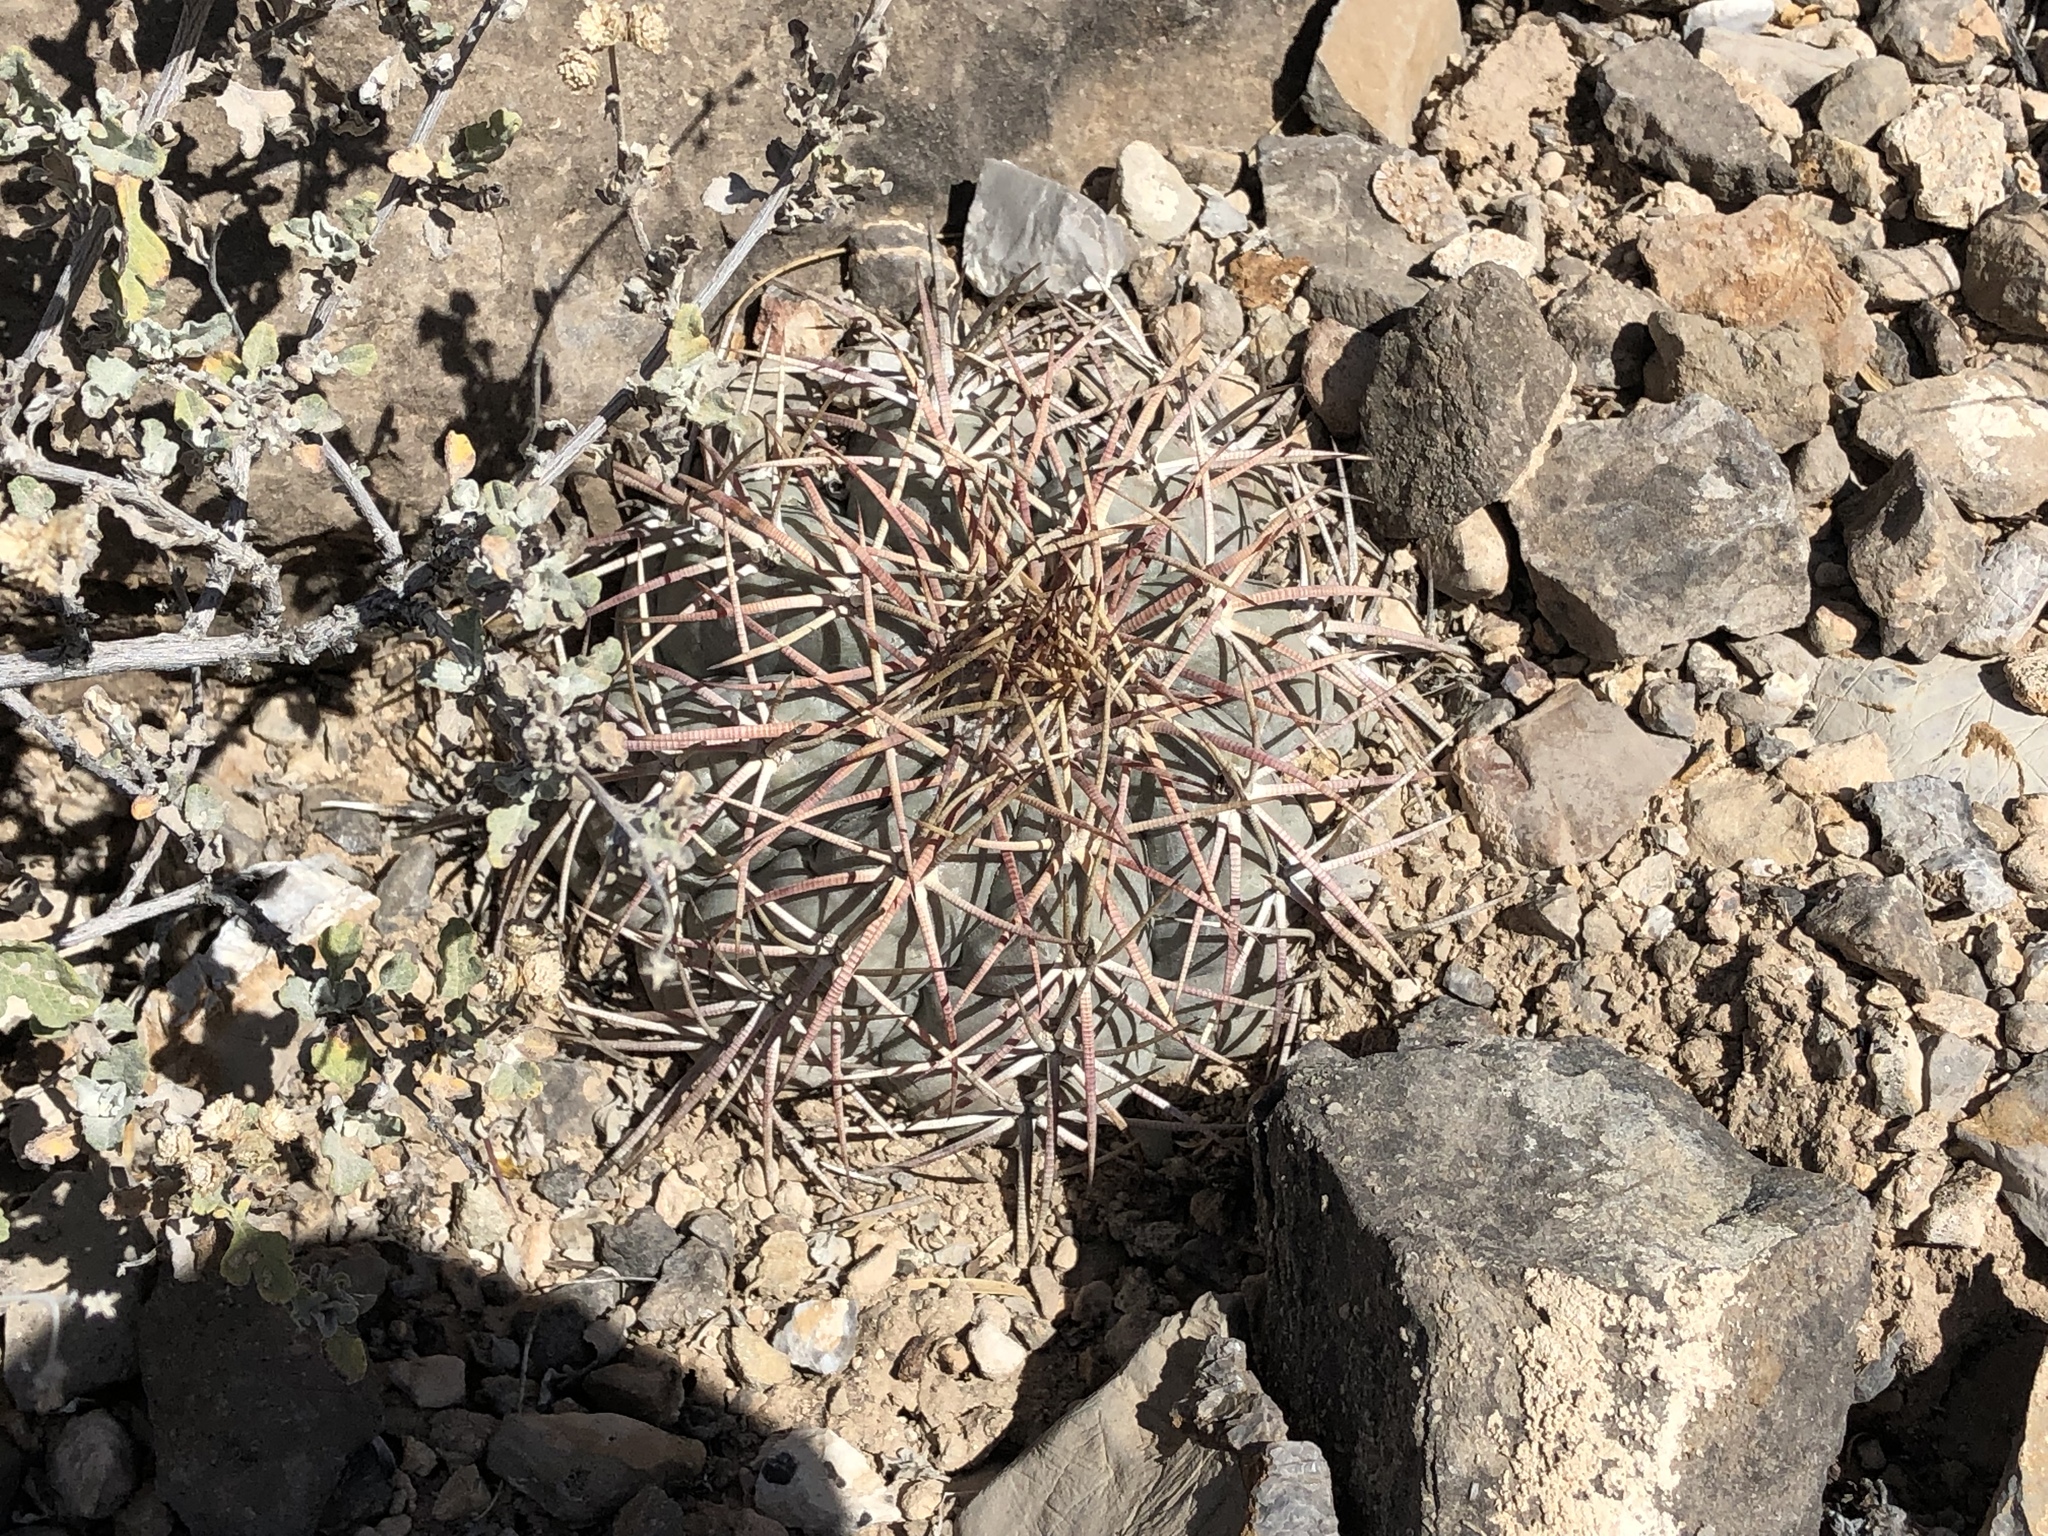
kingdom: Plantae
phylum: Tracheophyta
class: Magnoliopsida
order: Caryophyllales
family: Cactaceae
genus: Echinocactus
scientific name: Echinocactus horizonthalonius
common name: Devilshead
